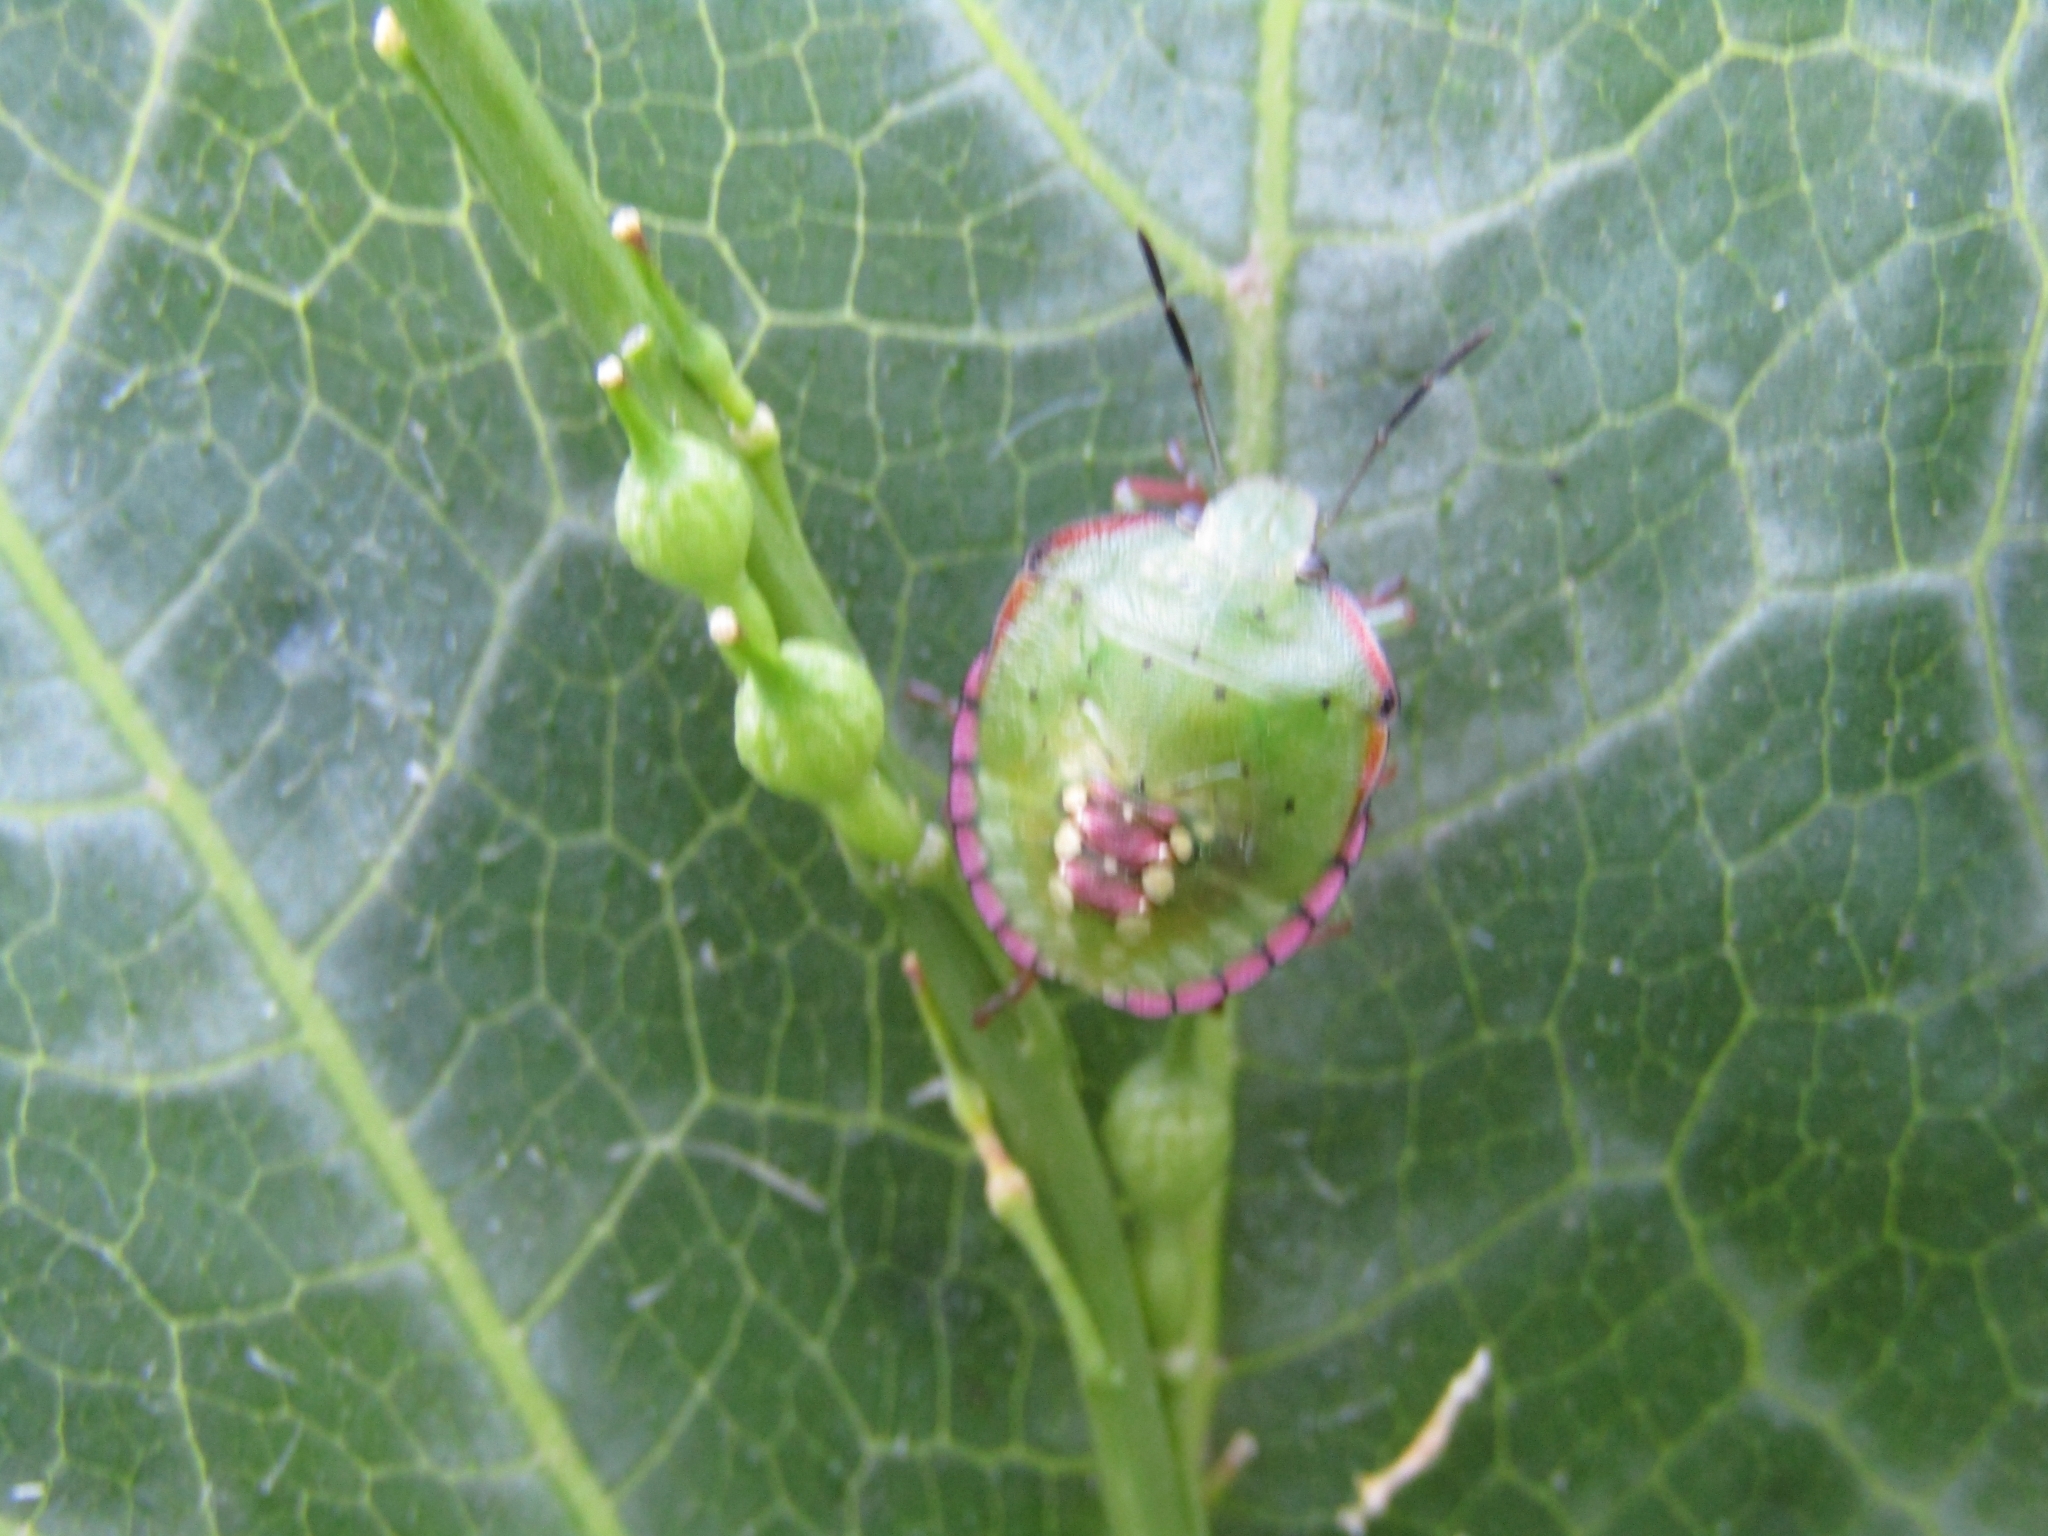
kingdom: Animalia
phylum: Arthropoda
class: Insecta
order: Hemiptera
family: Pentatomidae
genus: Nezara
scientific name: Nezara viridula
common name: Southern green stink bug
